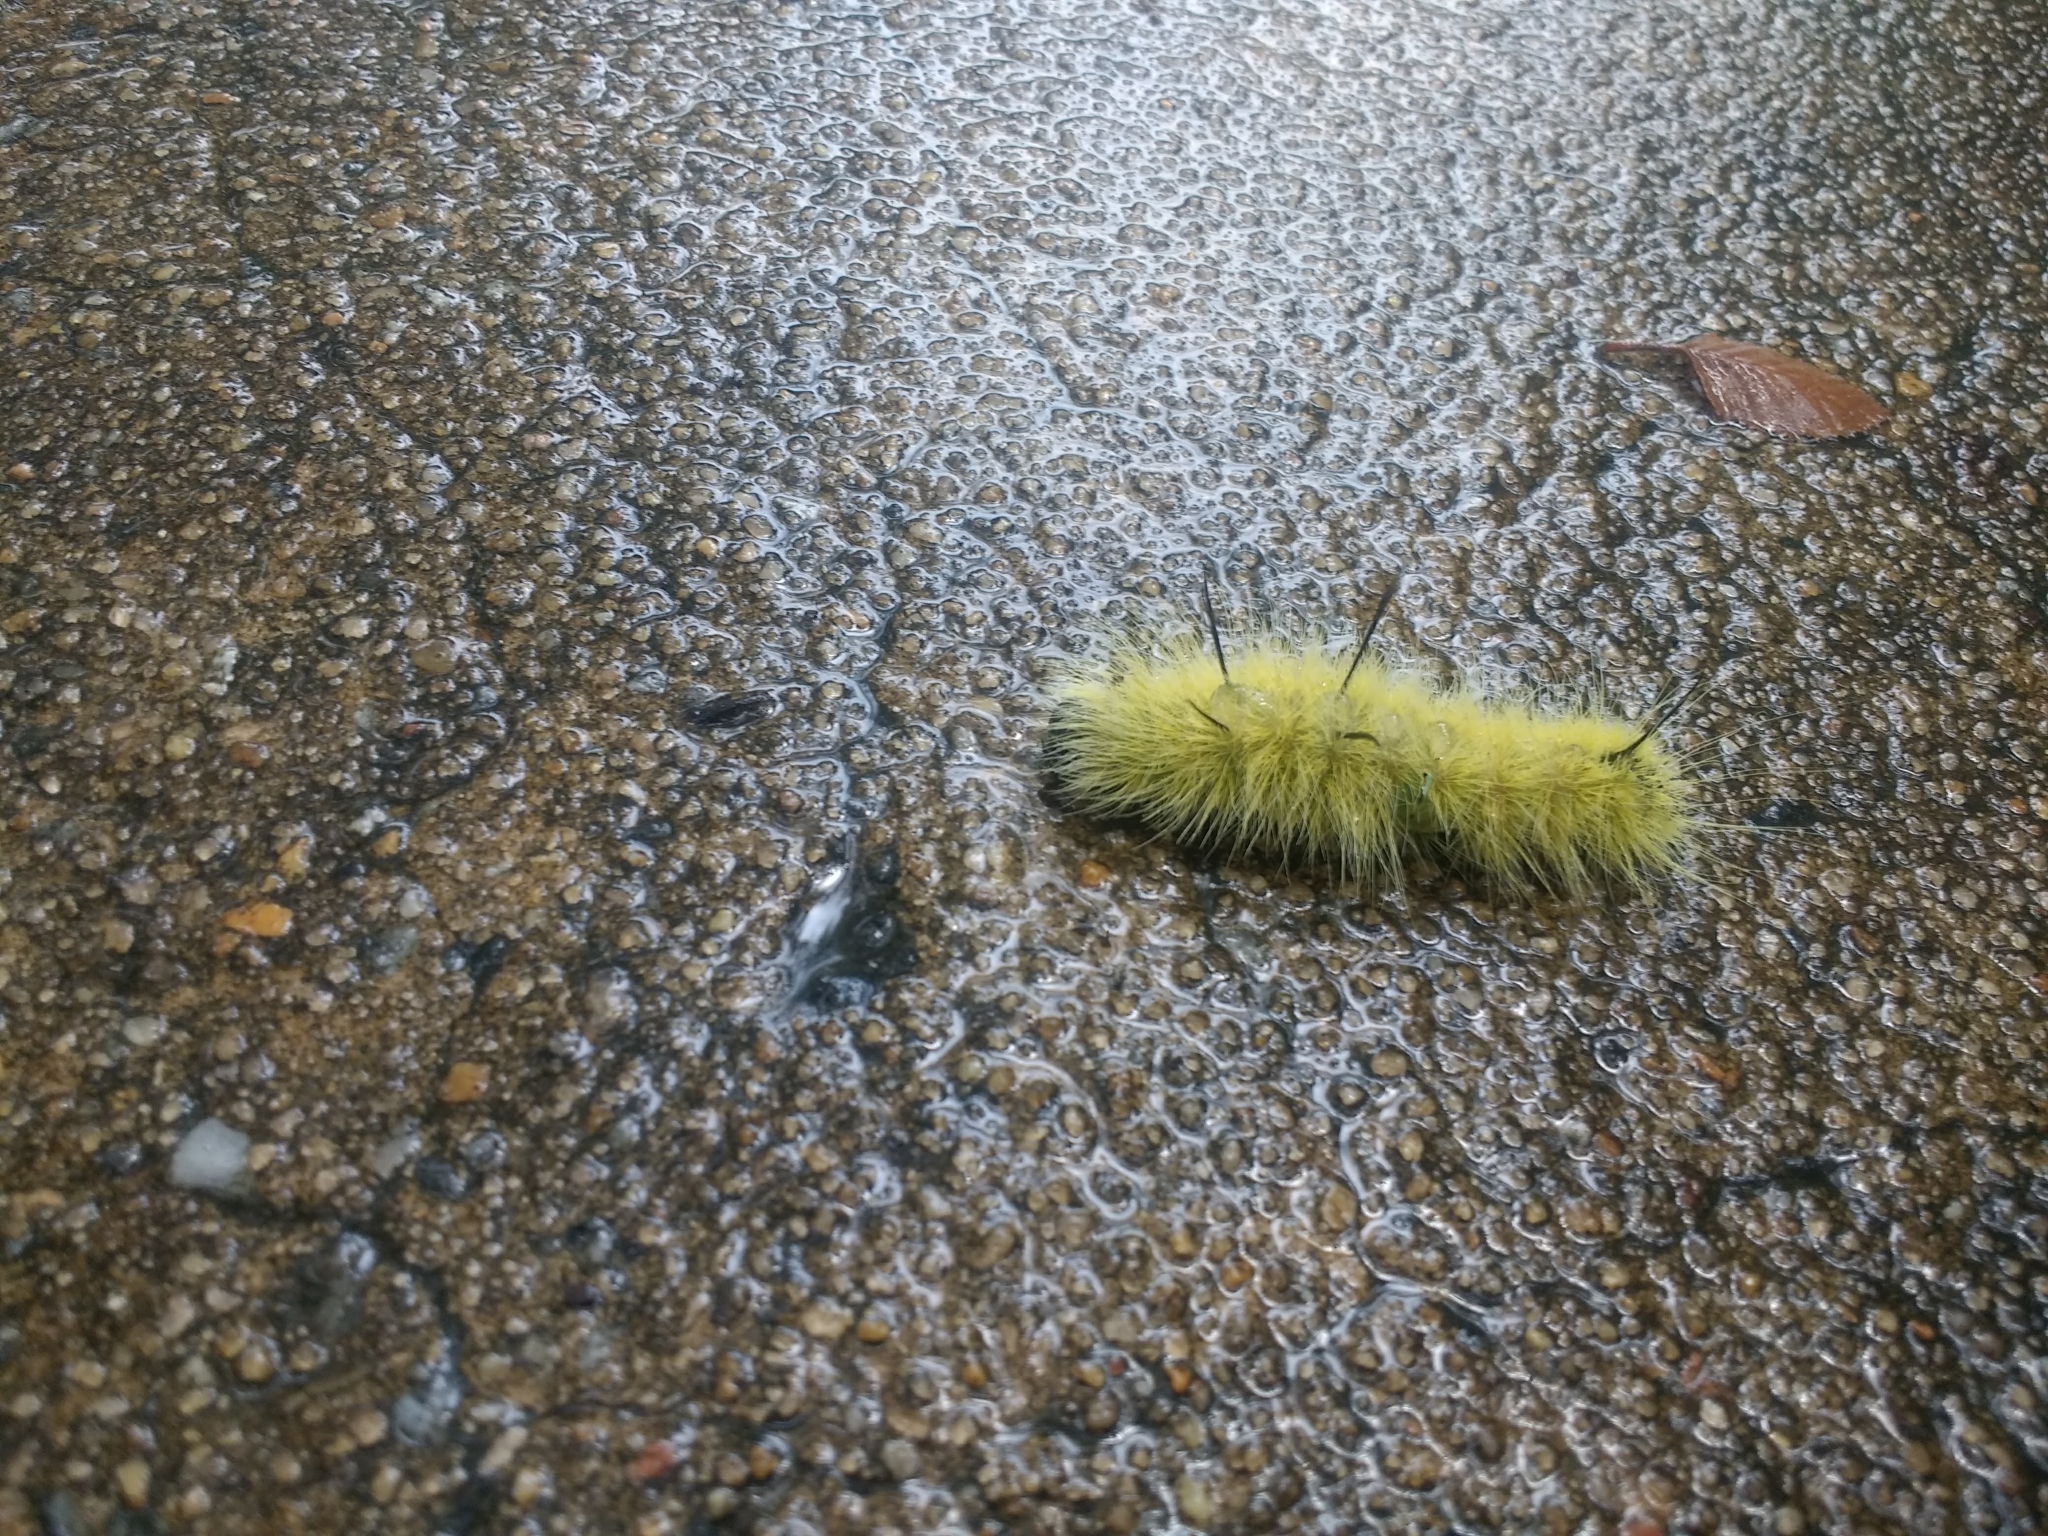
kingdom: Animalia
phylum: Arthropoda
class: Insecta
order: Lepidoptera
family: Noctuidae
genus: Acronicta
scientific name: Acronicta americana
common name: American dagger
